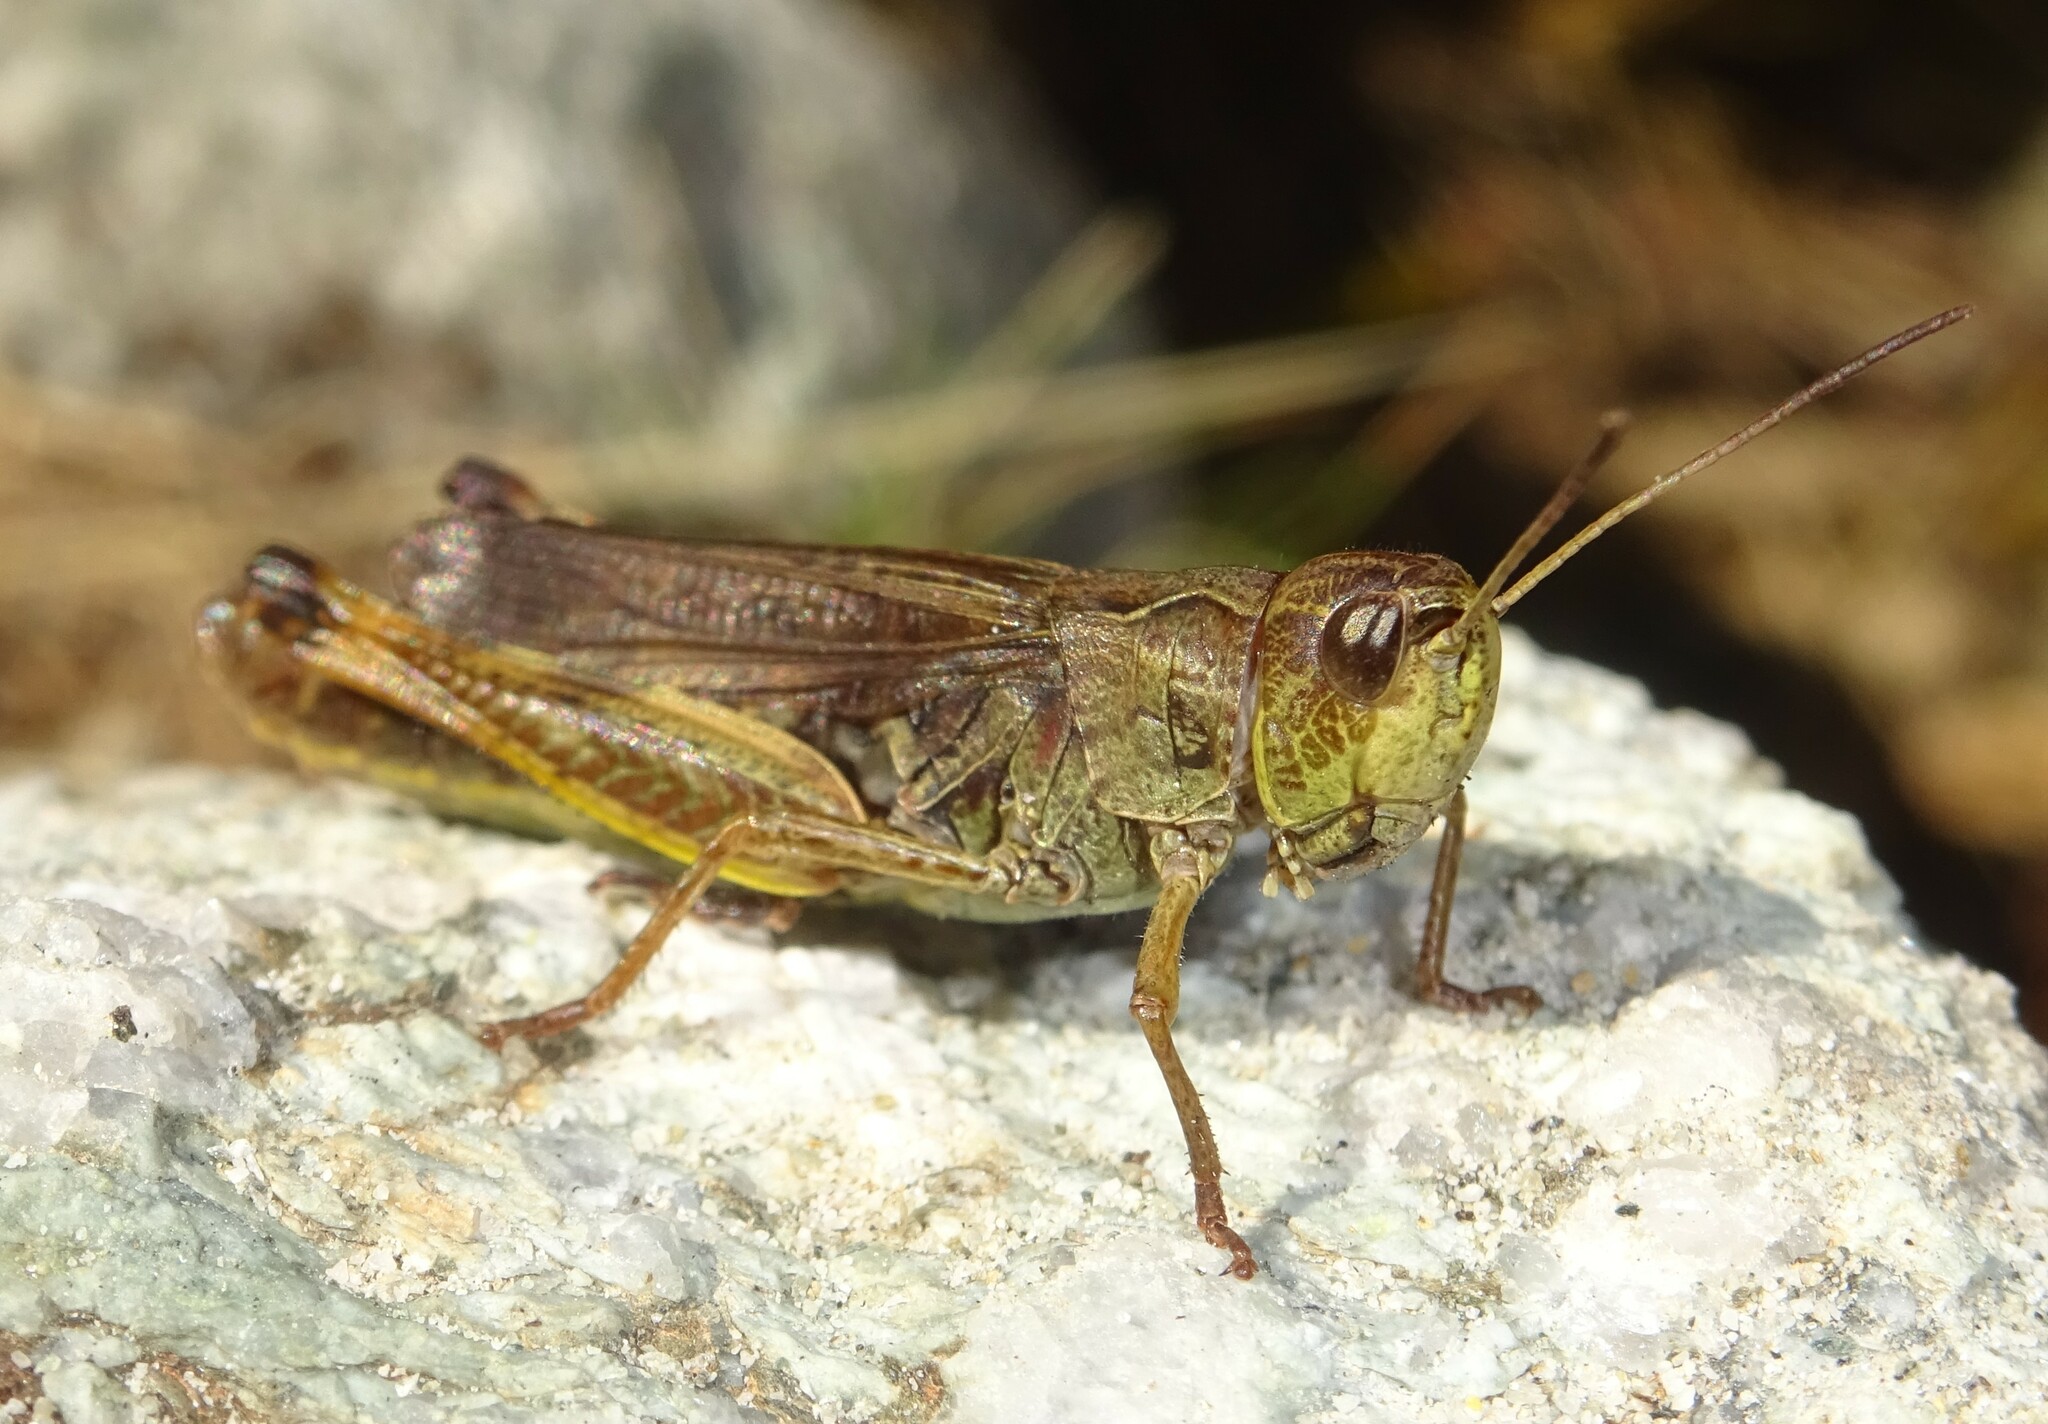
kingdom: Animalia
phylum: Arthropoda
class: Insecta
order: Orthoptera
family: Acrididae
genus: Stauroderus
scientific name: Stauroderus scalaris
